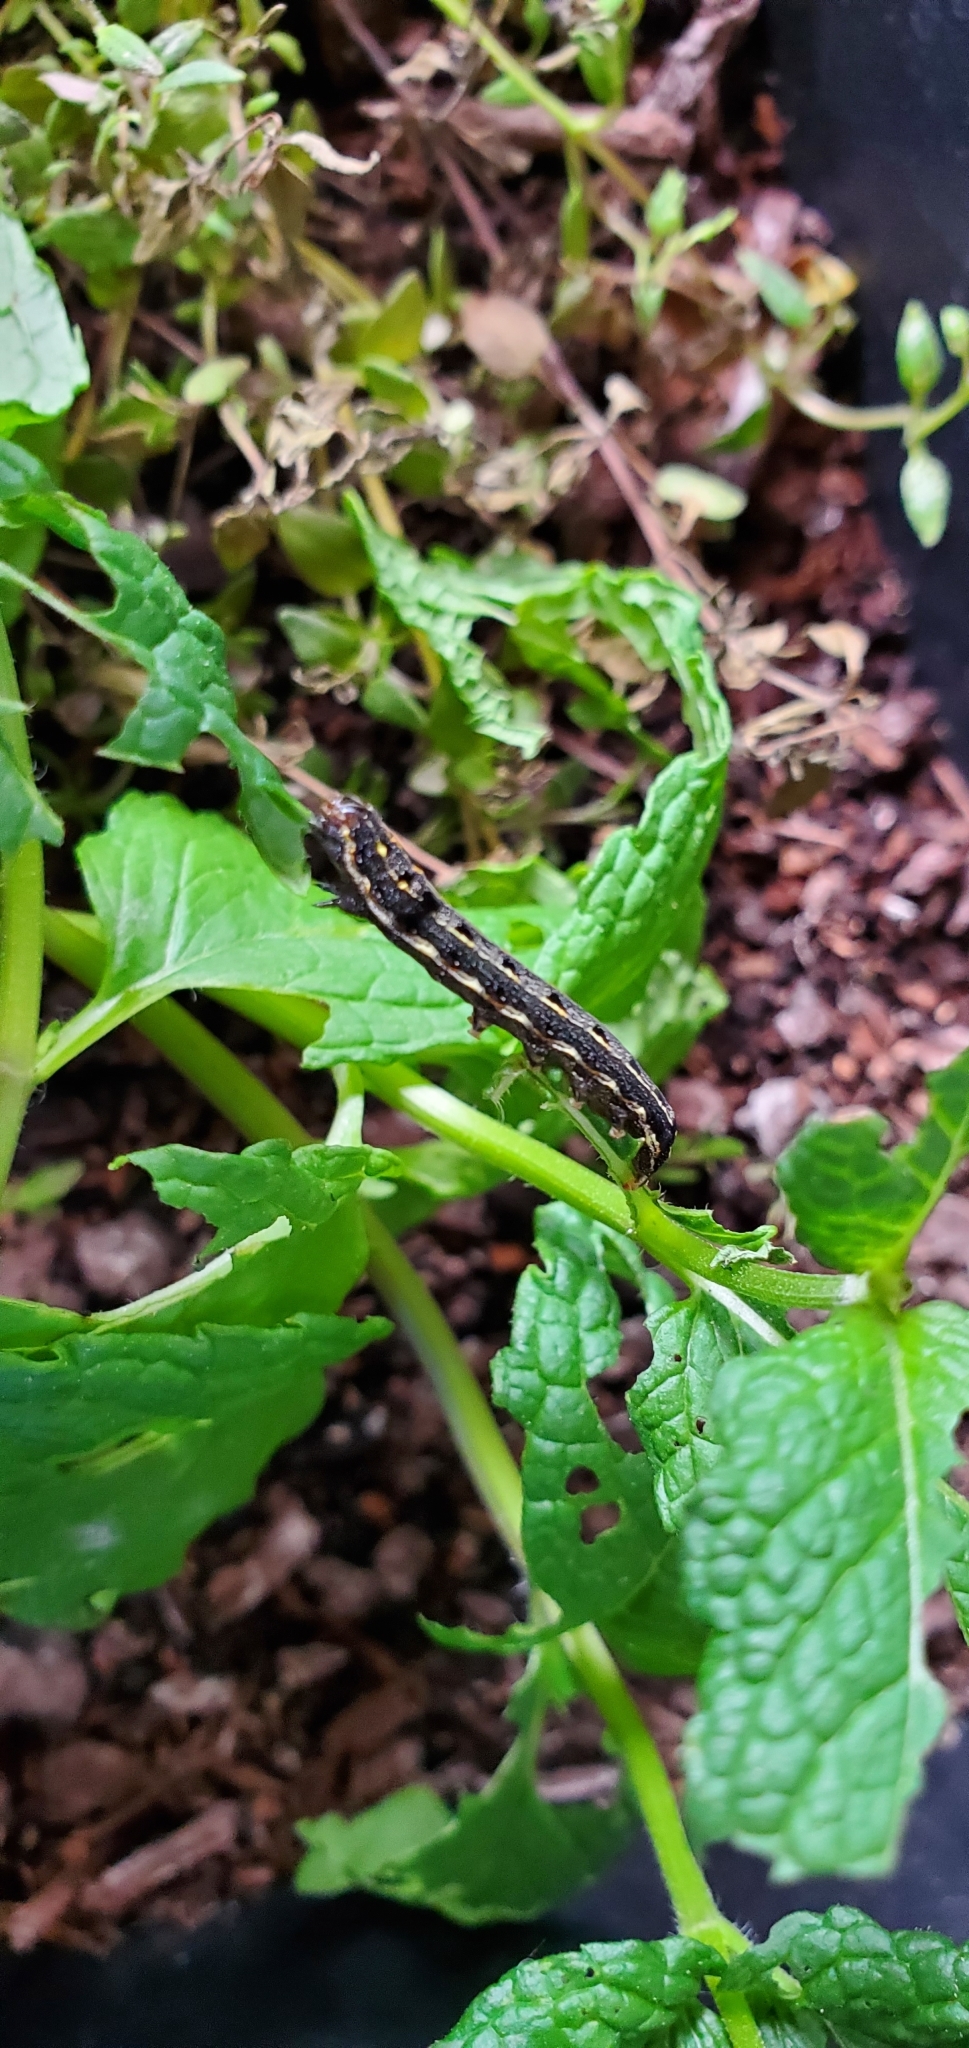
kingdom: Animalia
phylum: Arthropoda
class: Insecta
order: Lepidoptera
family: Noctuidae
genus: Spodoptera
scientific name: Spodoptera litura
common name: Asian cotton leafworm
